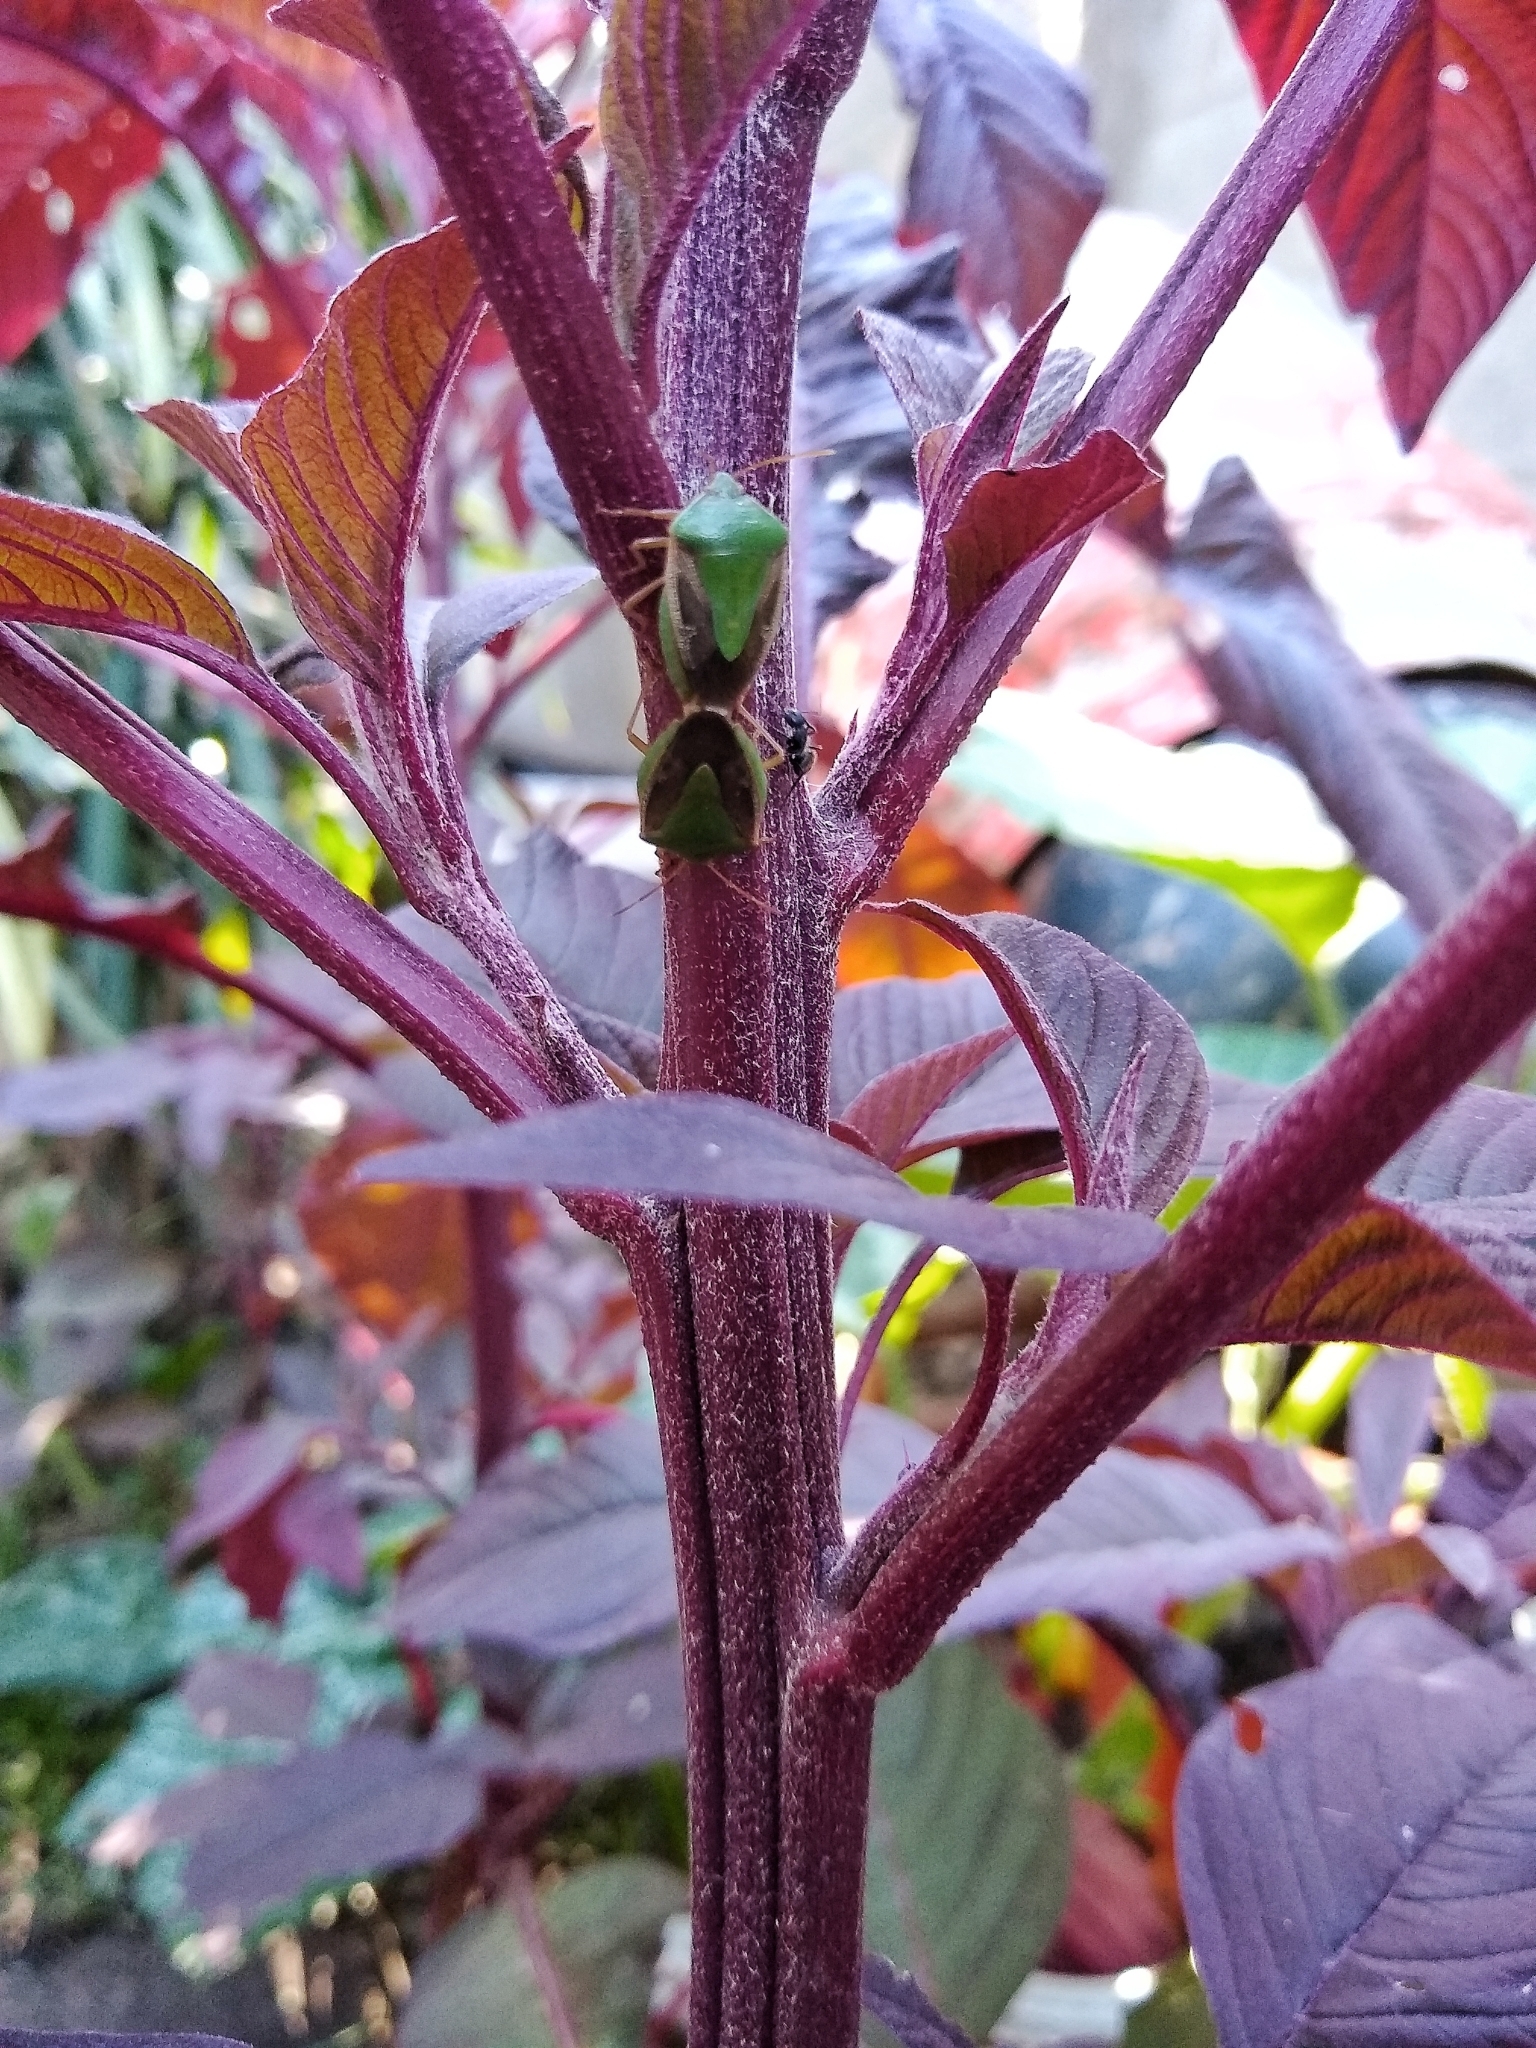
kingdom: Animalia
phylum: Arthropoda
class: Insecta
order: Hemiptera
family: Pentatomidae
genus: Edessa
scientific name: Edessa meditabunda
